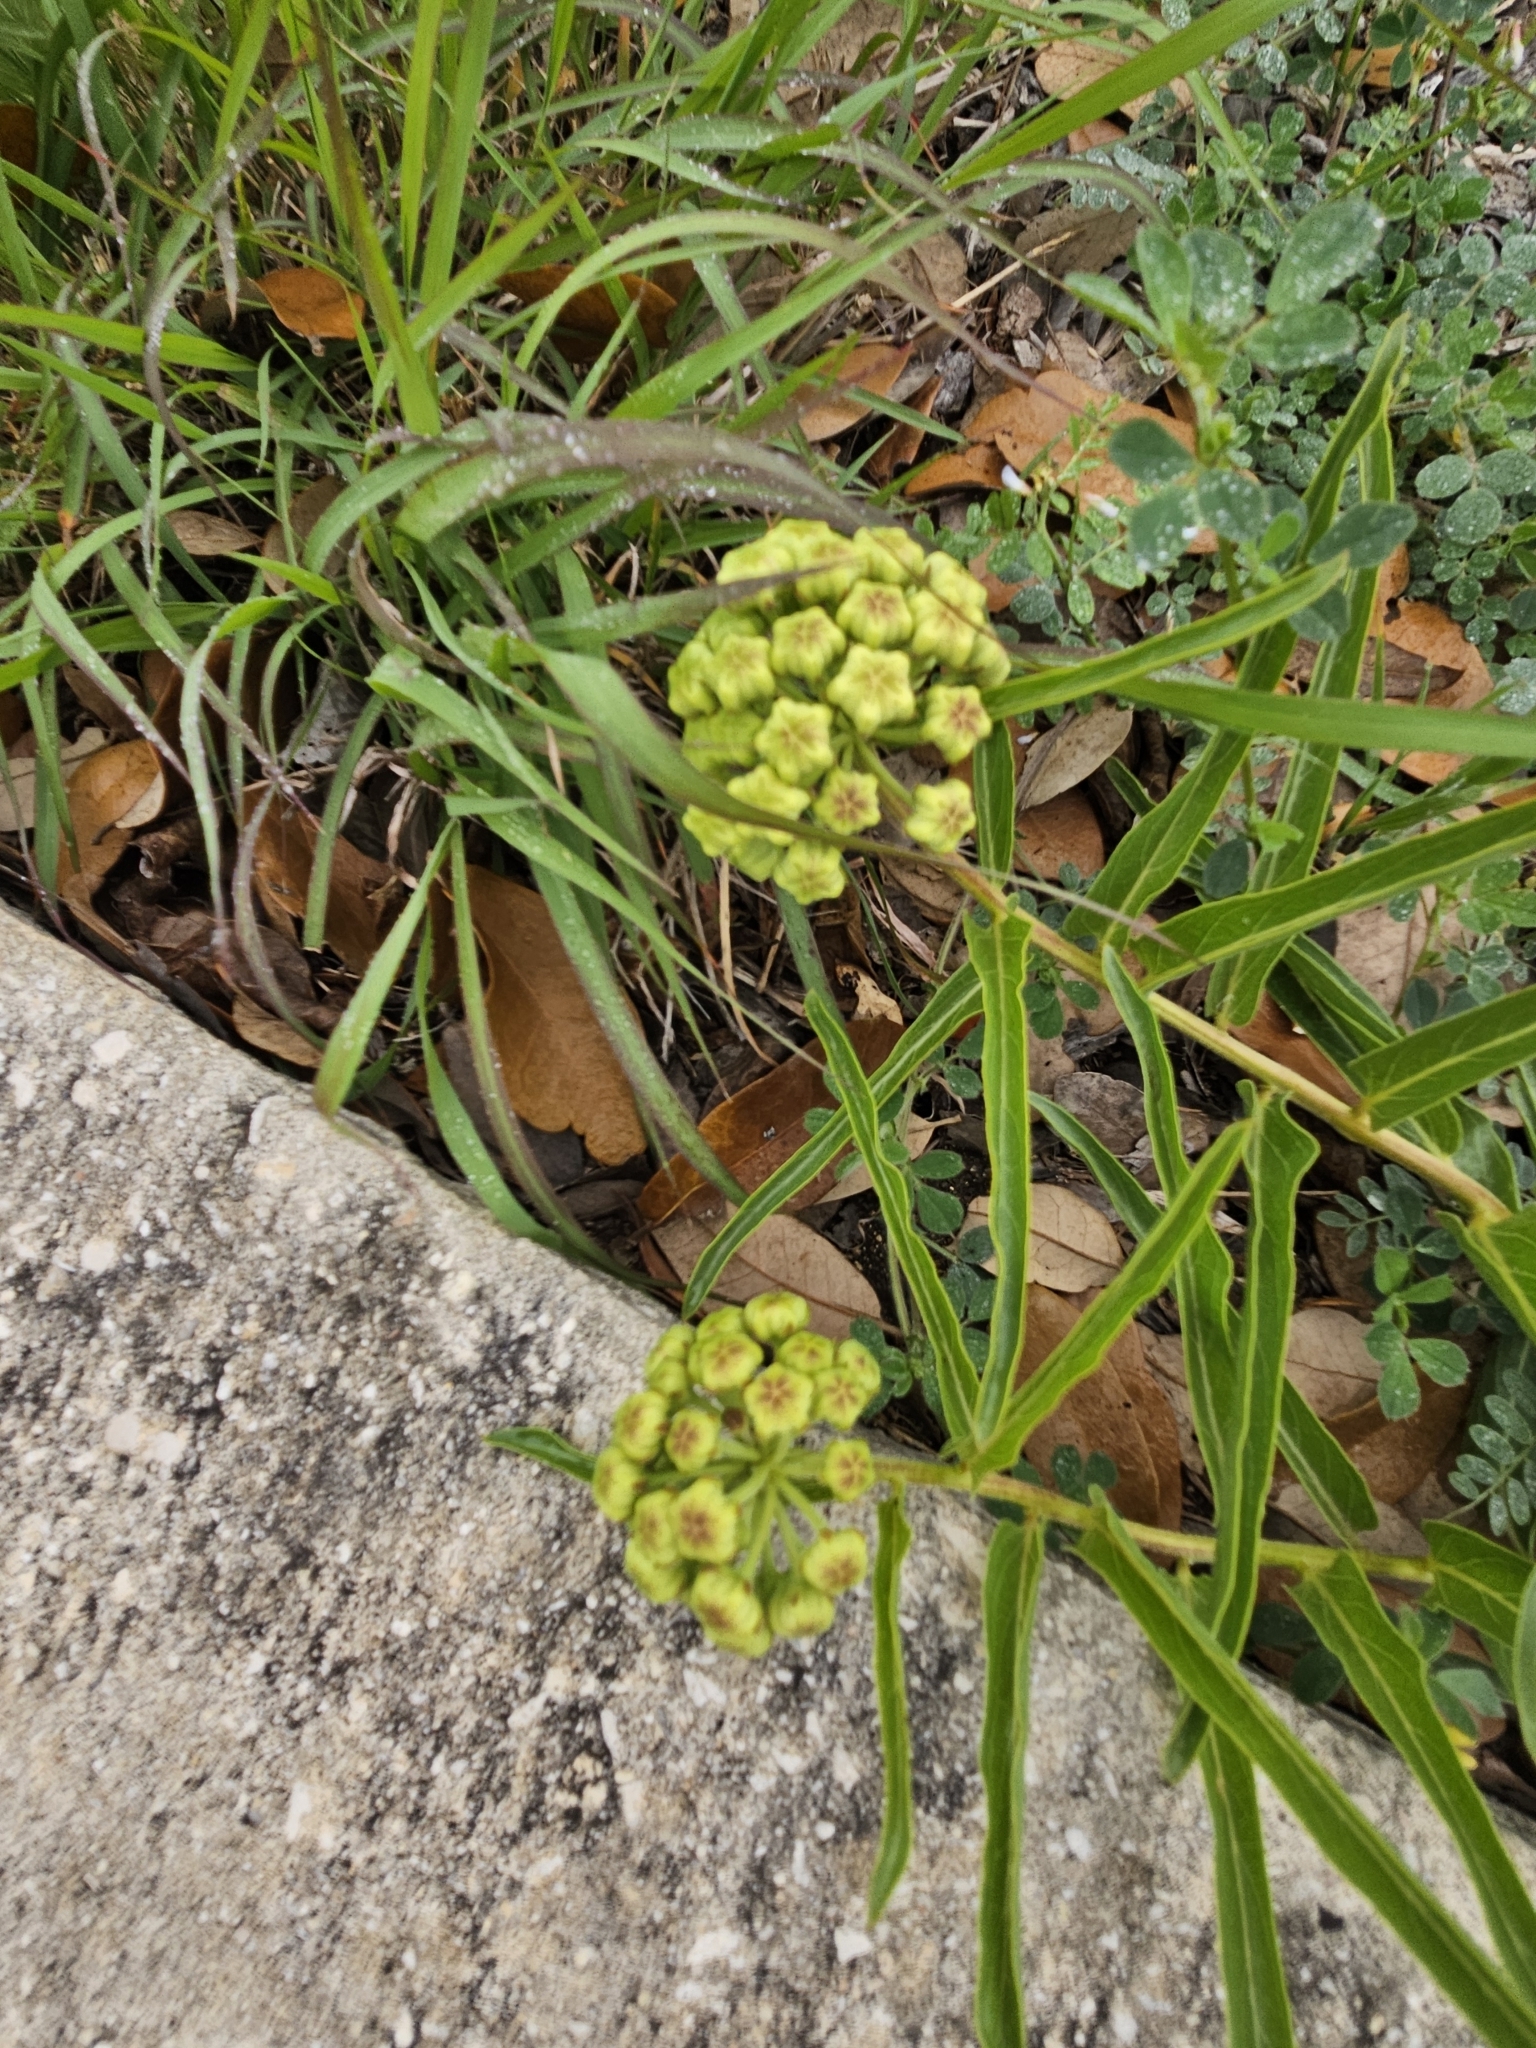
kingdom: Plantae
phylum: Tracheophyta
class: Magnoliopsida
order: Gentianales
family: Apocynaceae
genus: Asclepias
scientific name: Asclepias asperula
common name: Antelope horns
